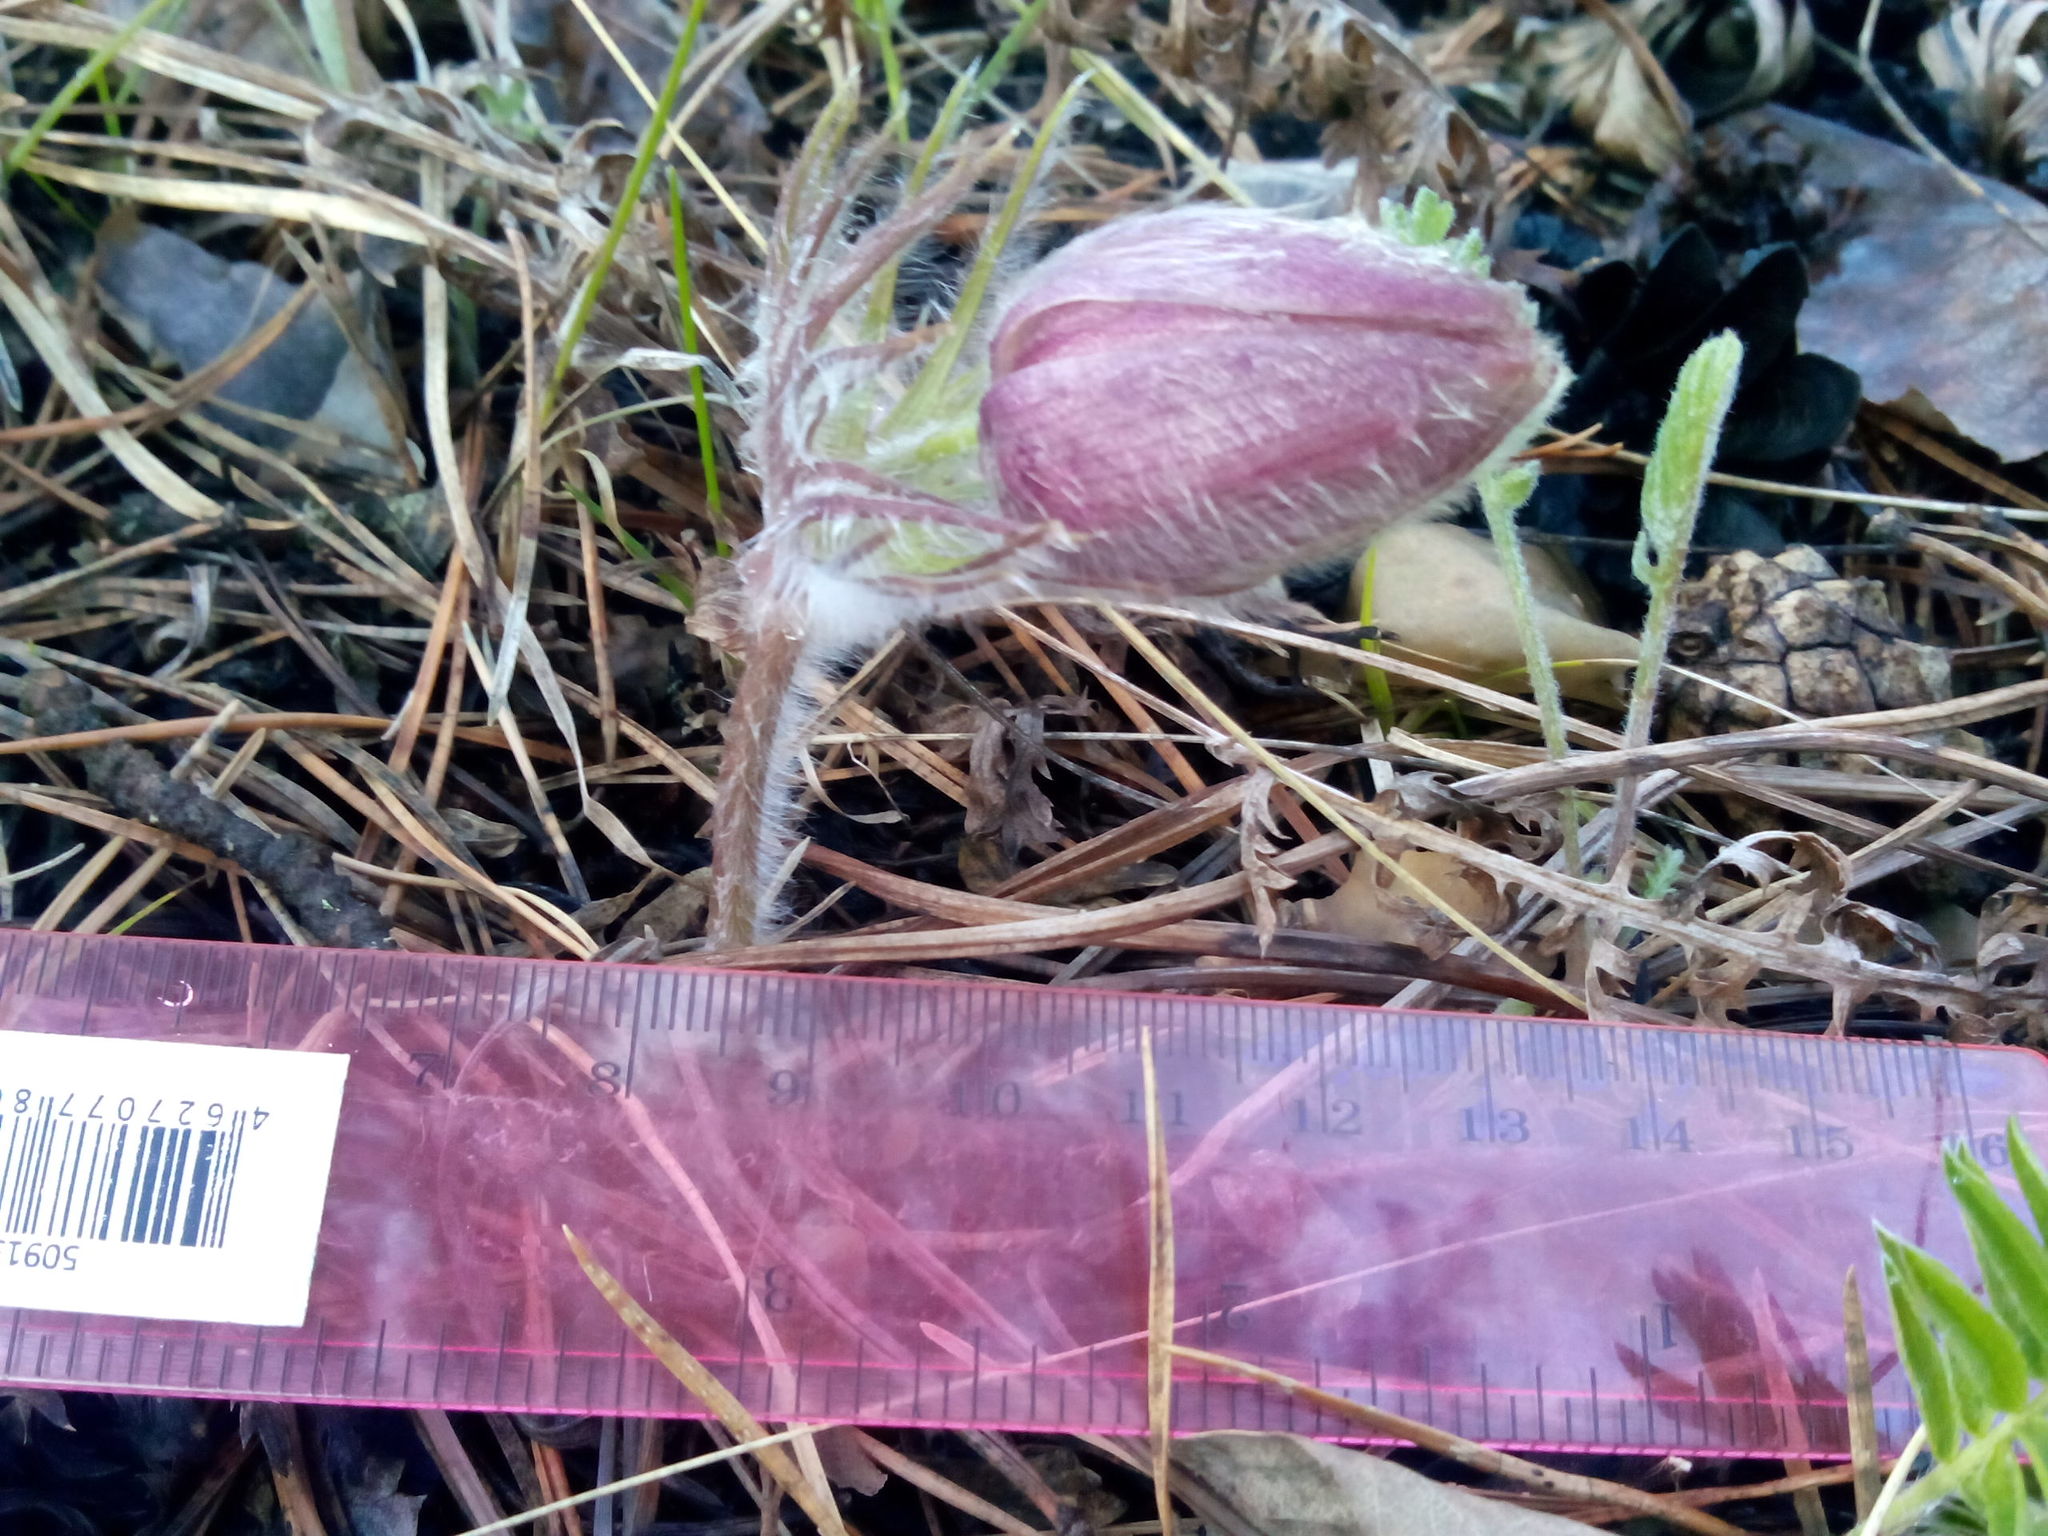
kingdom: Plantae
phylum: Tracheophyta
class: Magnoliopsida
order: Ranunculales
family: Ranunculaceae
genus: Pulsatilla
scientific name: Pulsatilla patens
